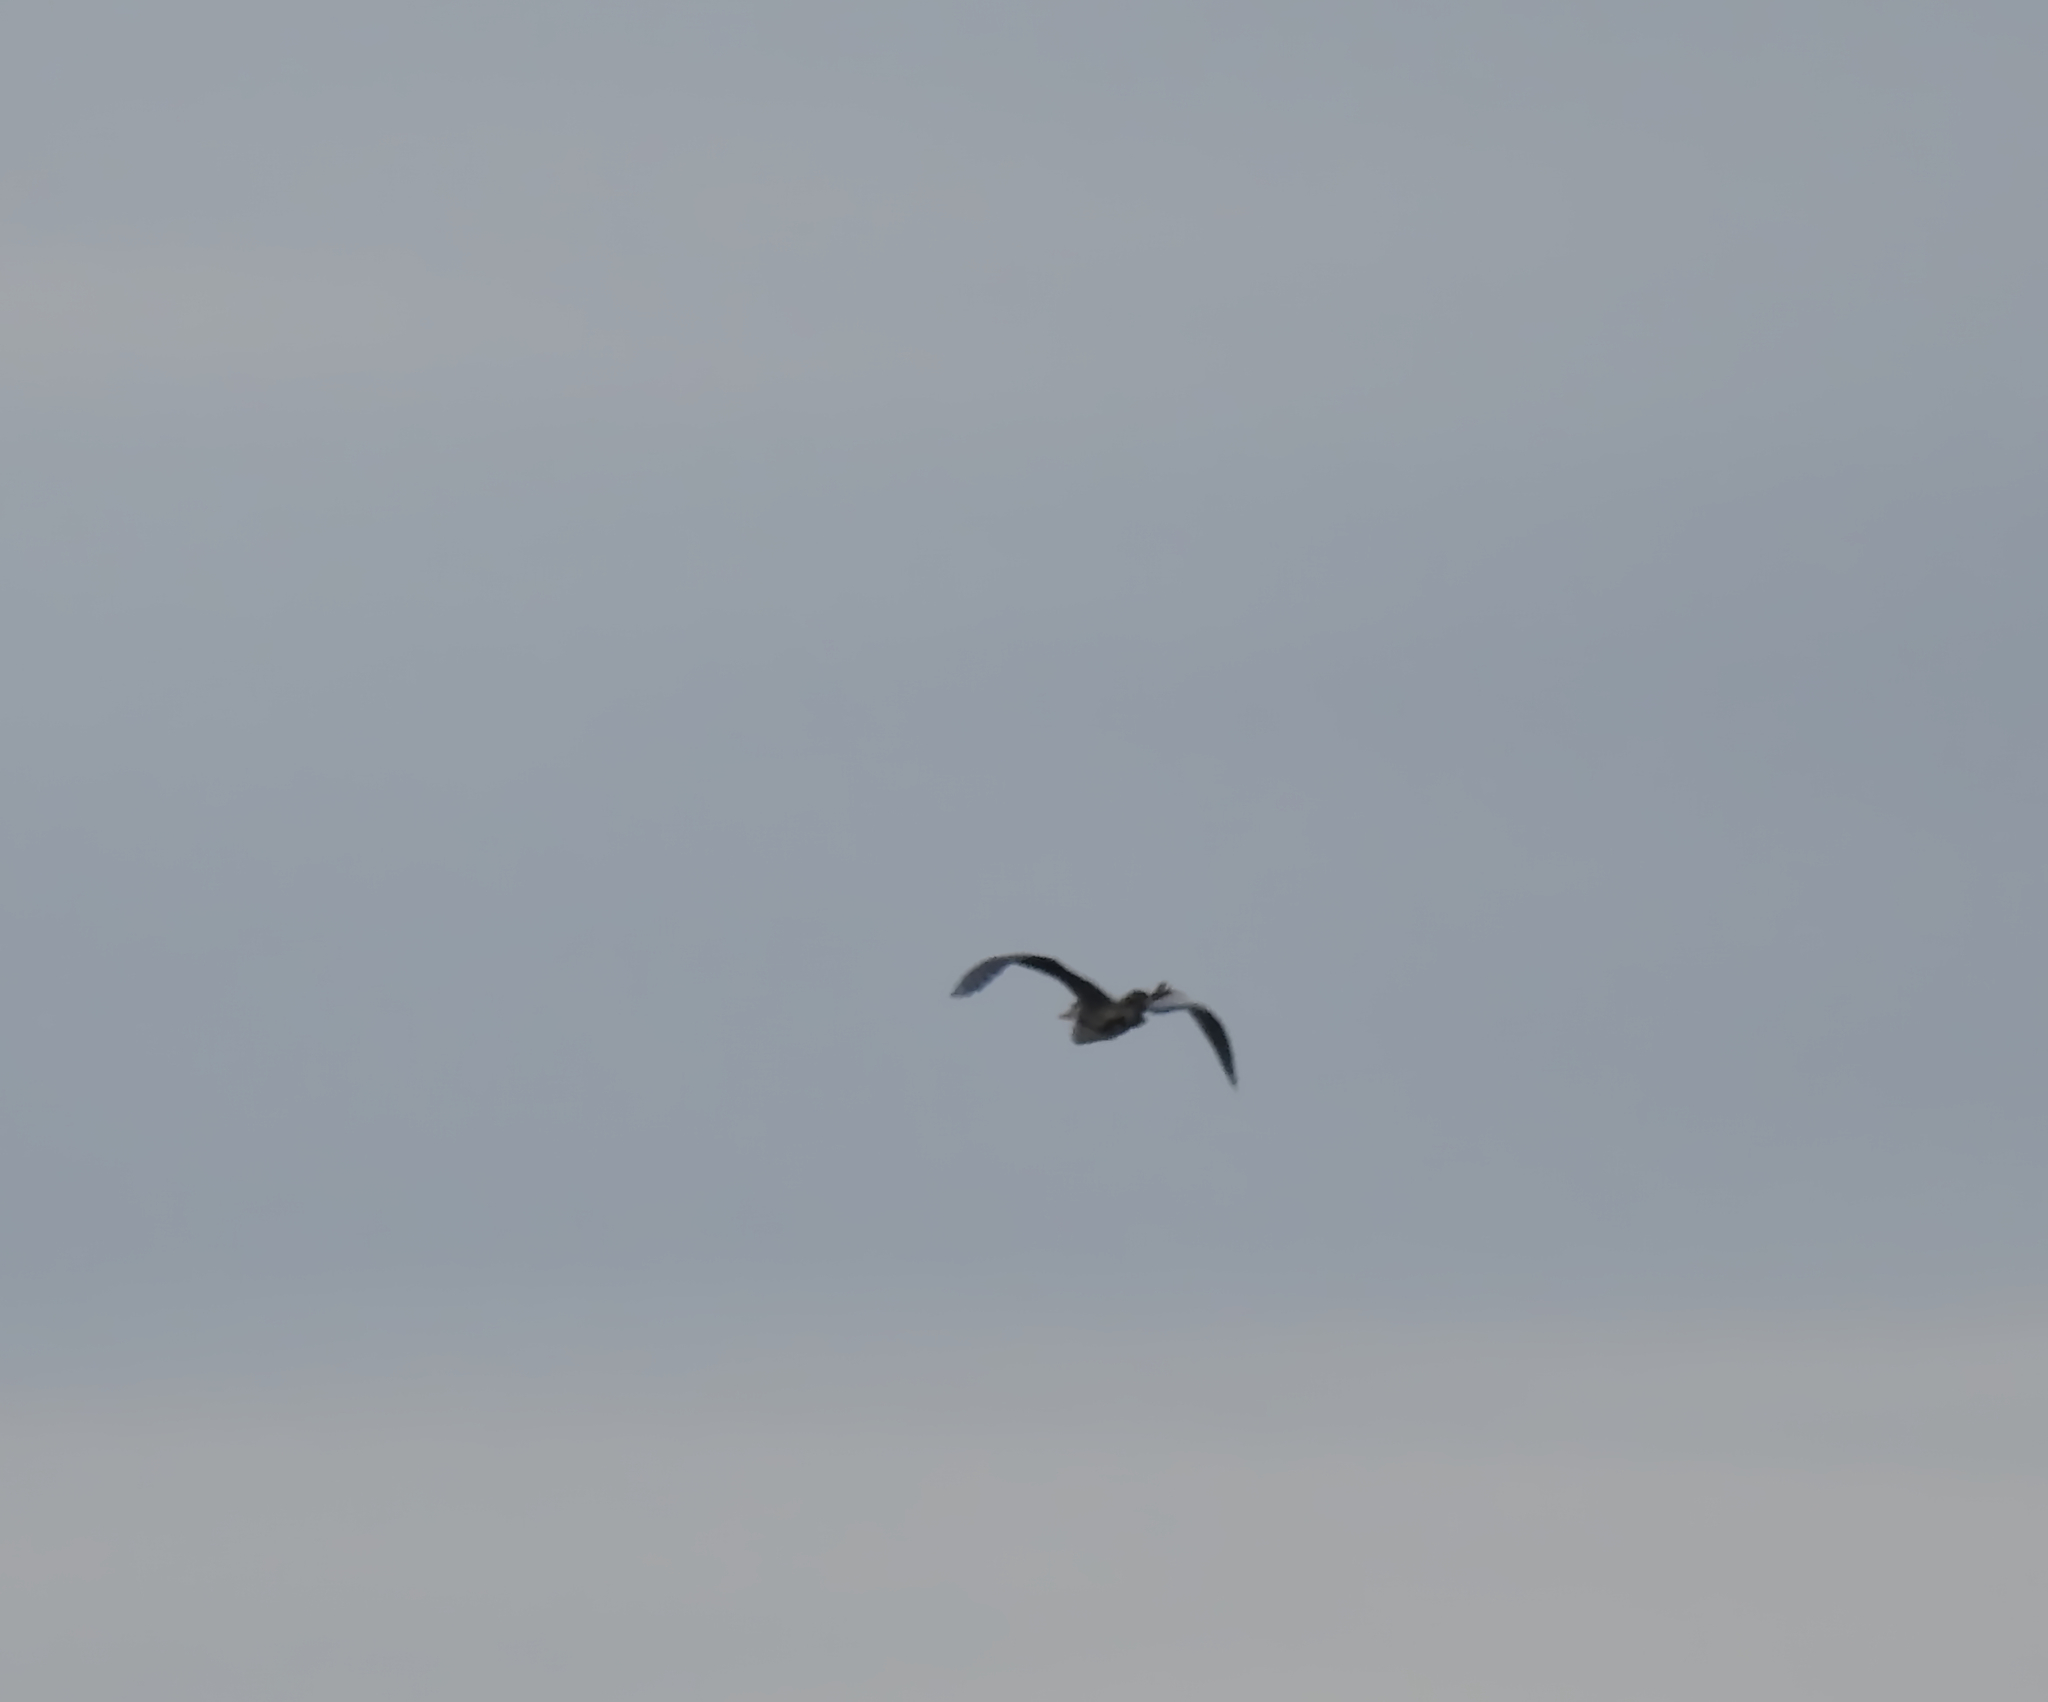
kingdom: Animalia
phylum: Chordata
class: Aves
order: Pelecaniformes
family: Ardeidae
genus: Ardea
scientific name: Ardea cinerea
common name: Grey heron
